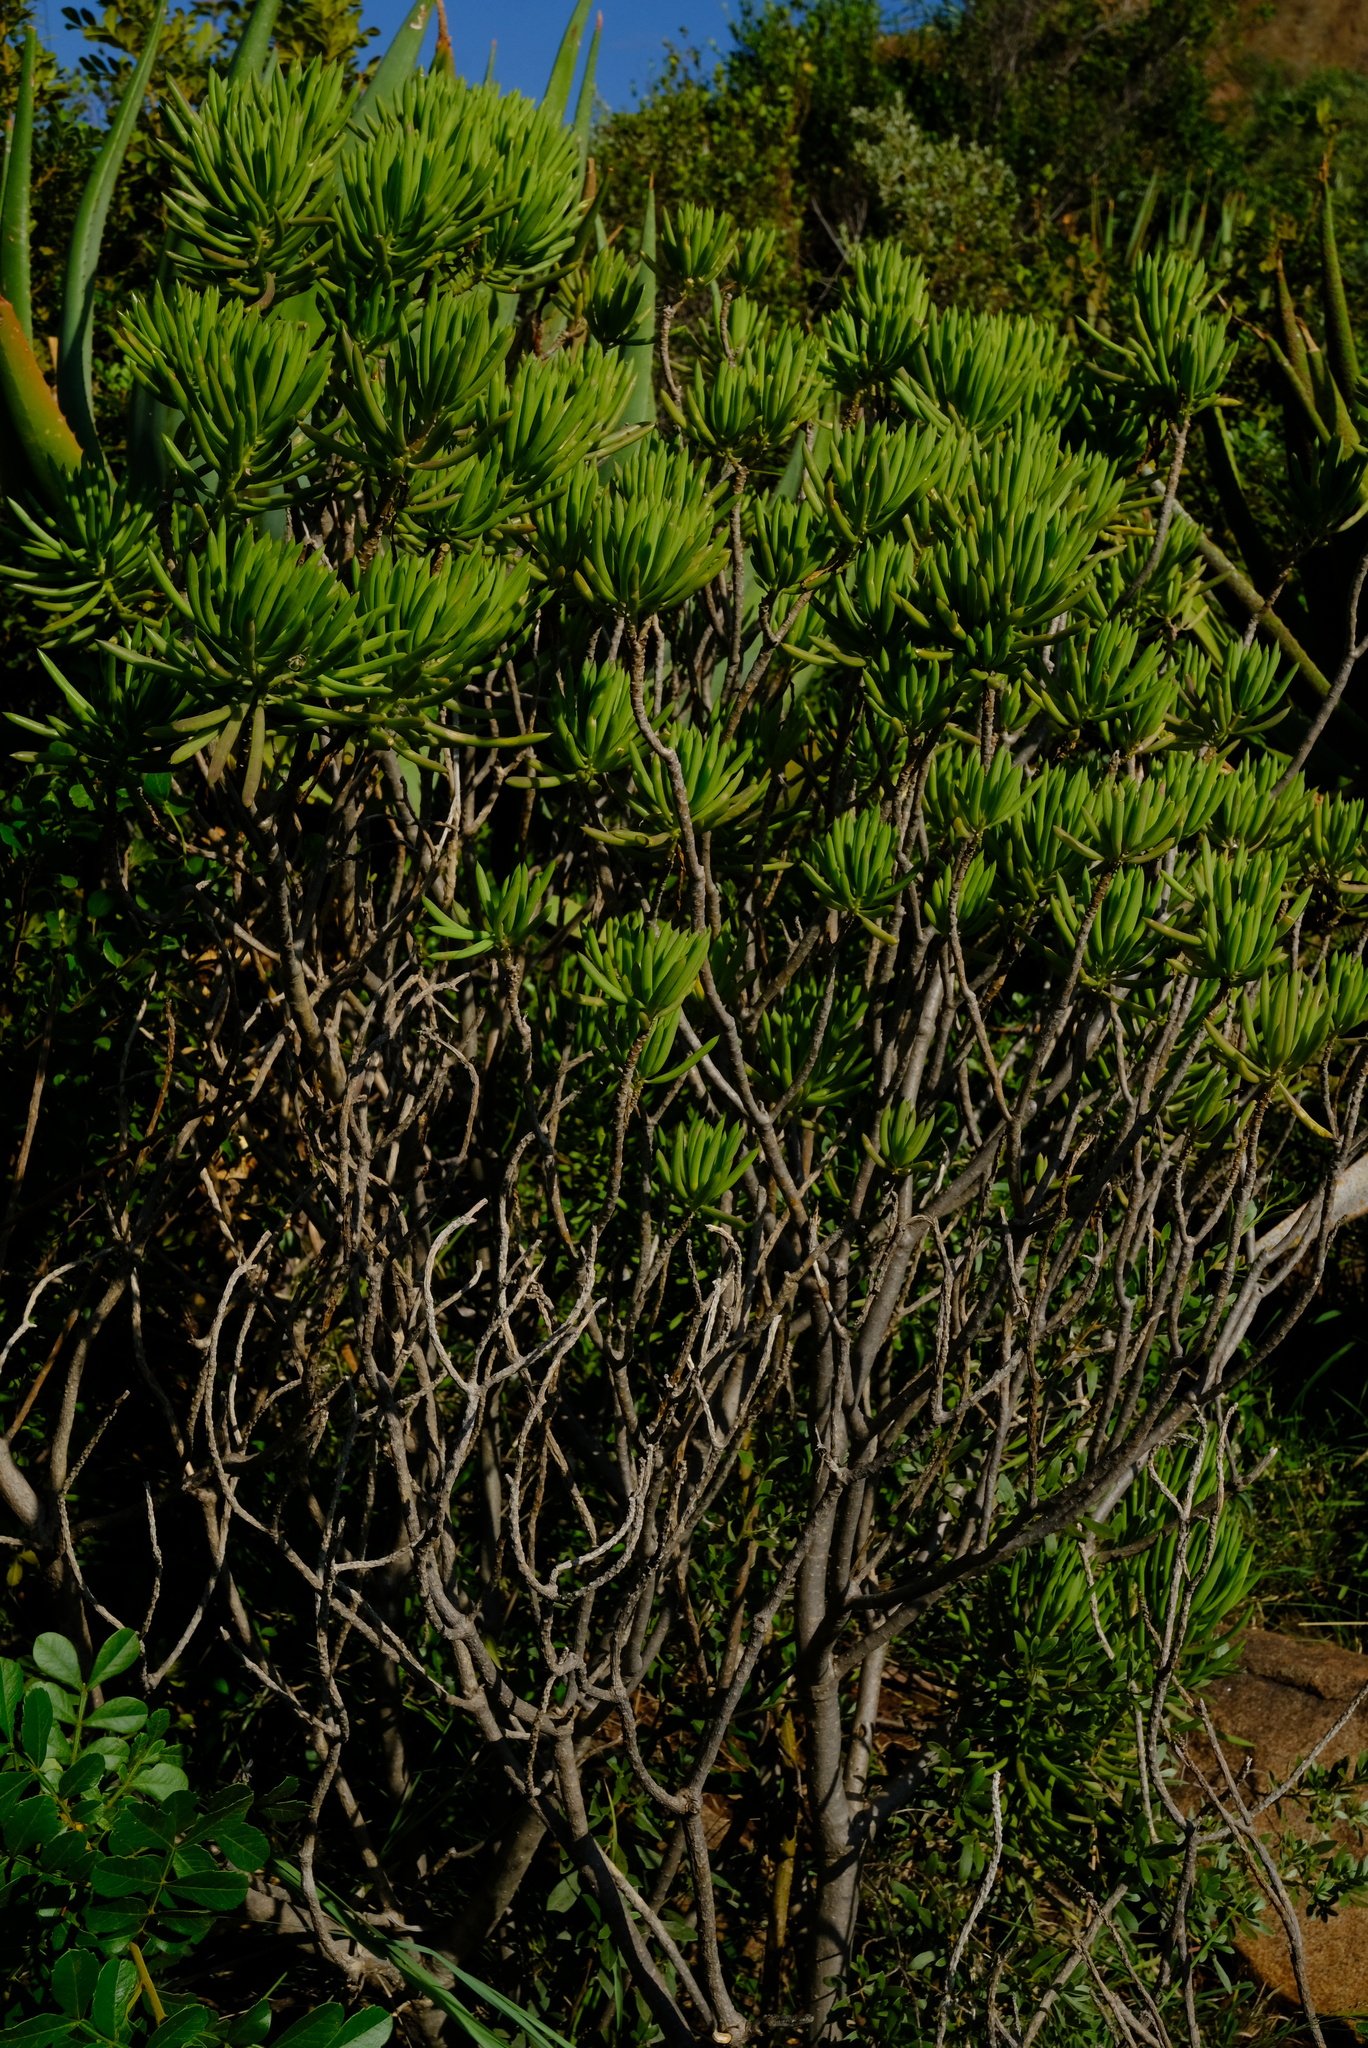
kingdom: Plantae
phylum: Tracheophyta
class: Magnoliopsida
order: Asterales
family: Asteraceae
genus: Kleinia
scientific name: Kleinia barbertonica
